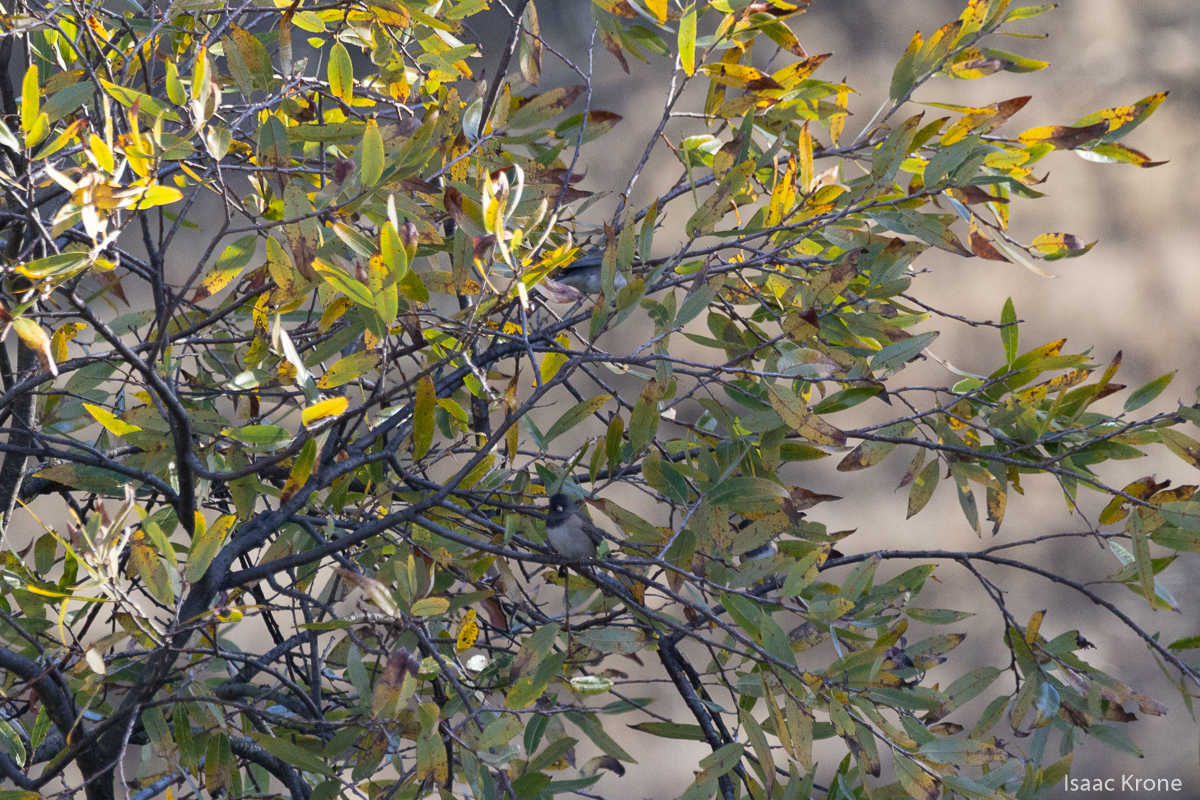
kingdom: Animalia
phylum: Chordata
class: Aves
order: Passeriformes
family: Passerellidae
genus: Junco
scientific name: Junco hyemalis
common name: Dark-eyed junco
